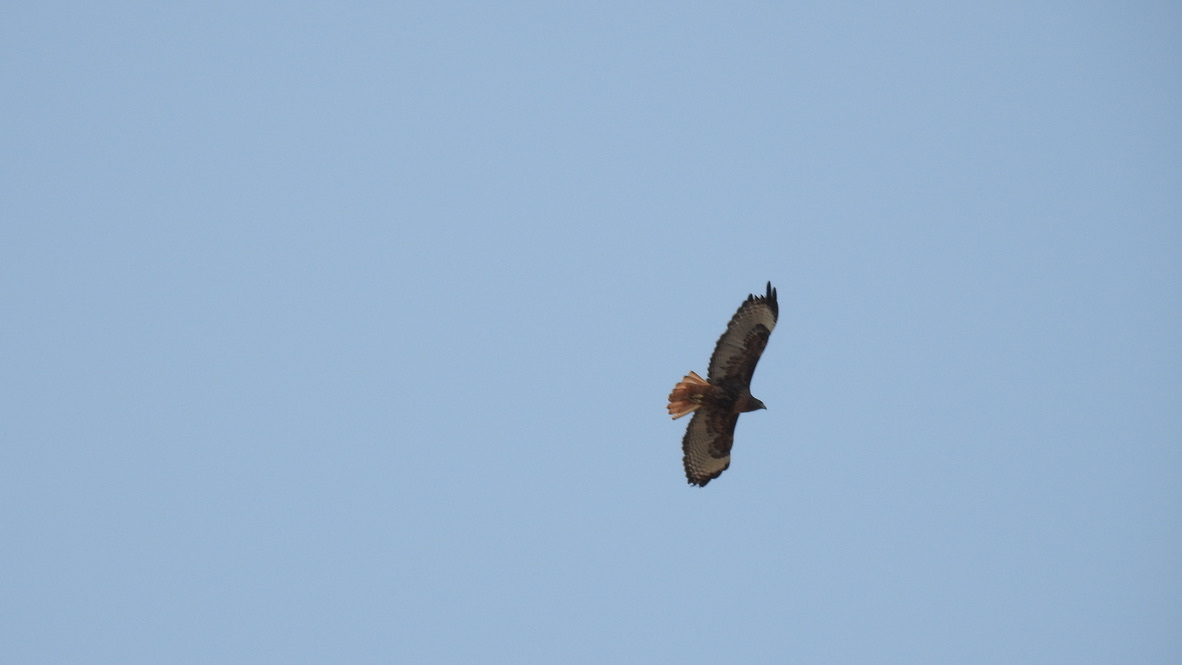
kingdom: Animalia
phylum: Chordata
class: Aves
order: Accipitriformes
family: Accipitridae
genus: Buteo
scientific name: Buteo jamaicensis
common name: Red-tailed hawk
